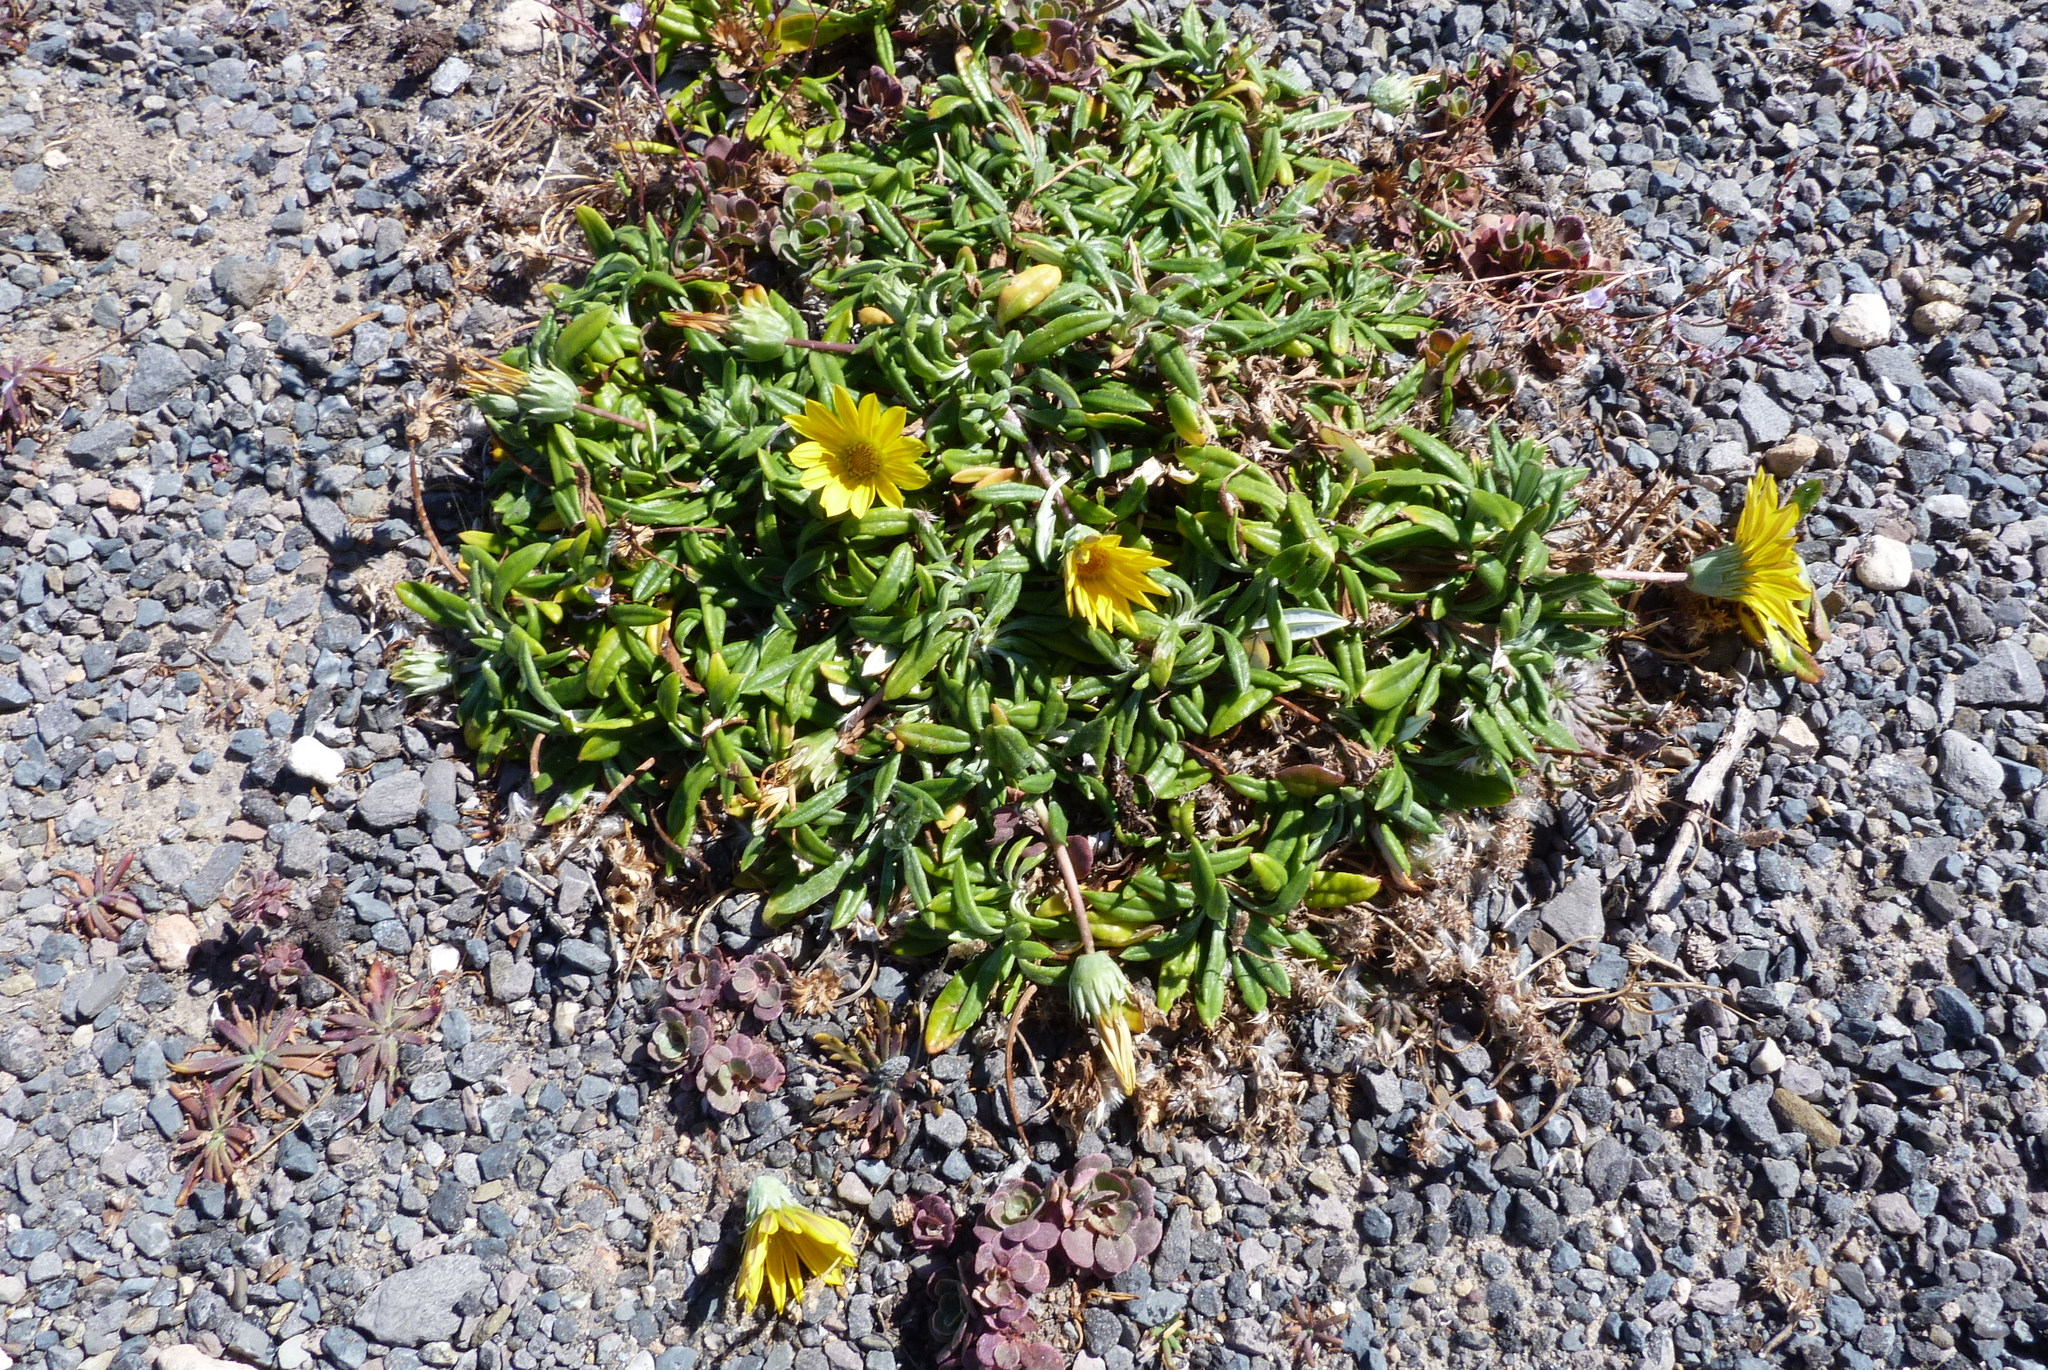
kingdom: Plantae
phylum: Tracheophyta
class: Magnoliopsida
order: Asterales
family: Asteraceae
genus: Gazania
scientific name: Gazania splendens
